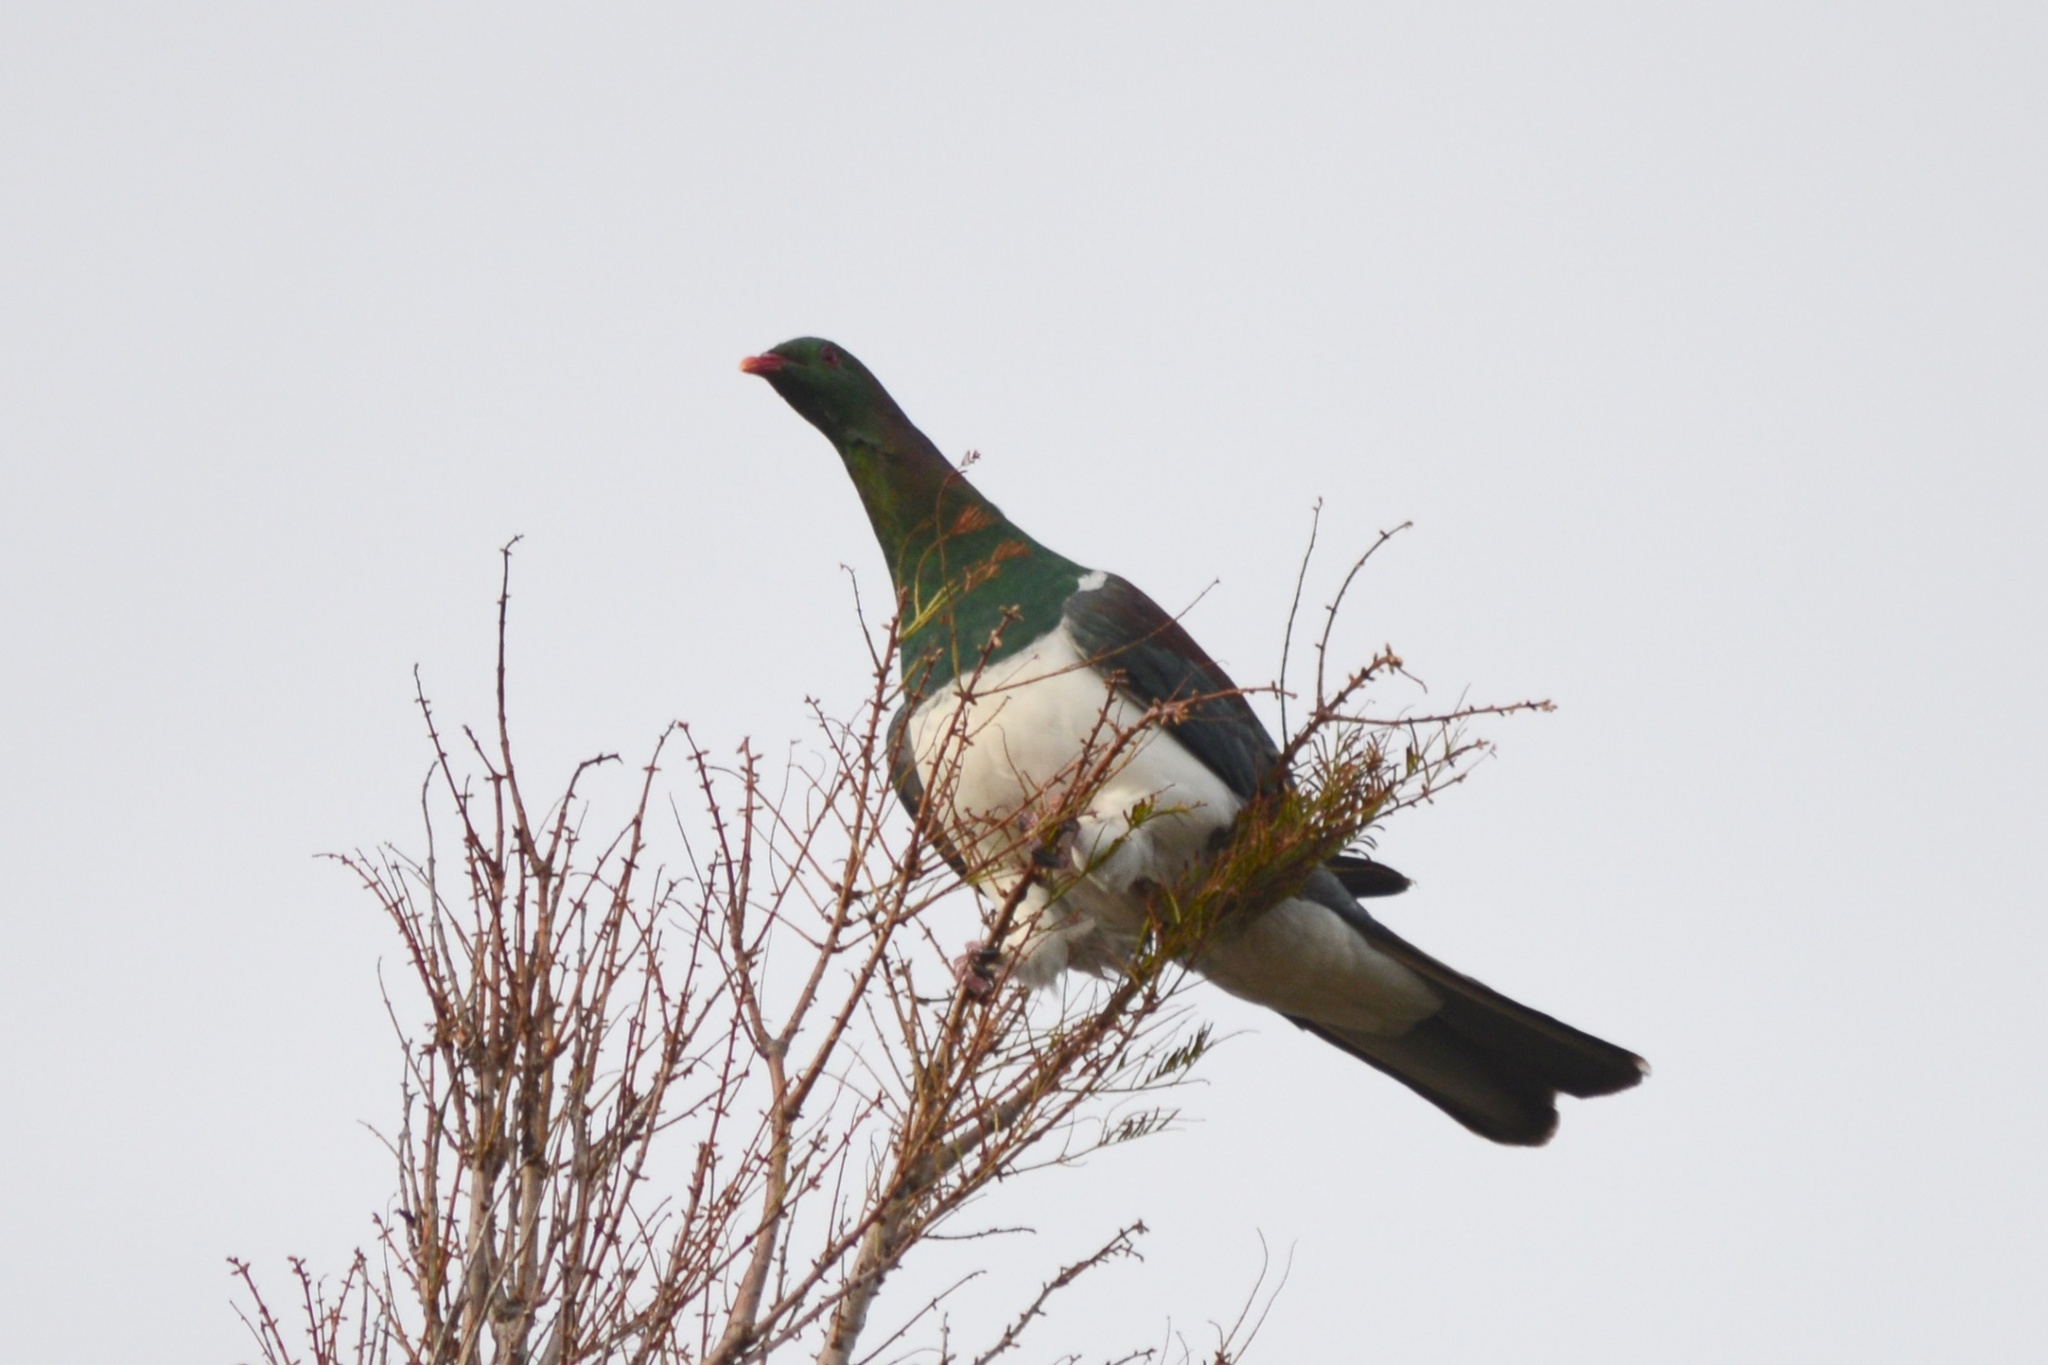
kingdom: Animalia
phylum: Chordata
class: Aves
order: Columbiformes
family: Columbidae
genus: Hemiphaga
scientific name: Hemiphaga novaeseelandiae
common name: New zealand pigeon
